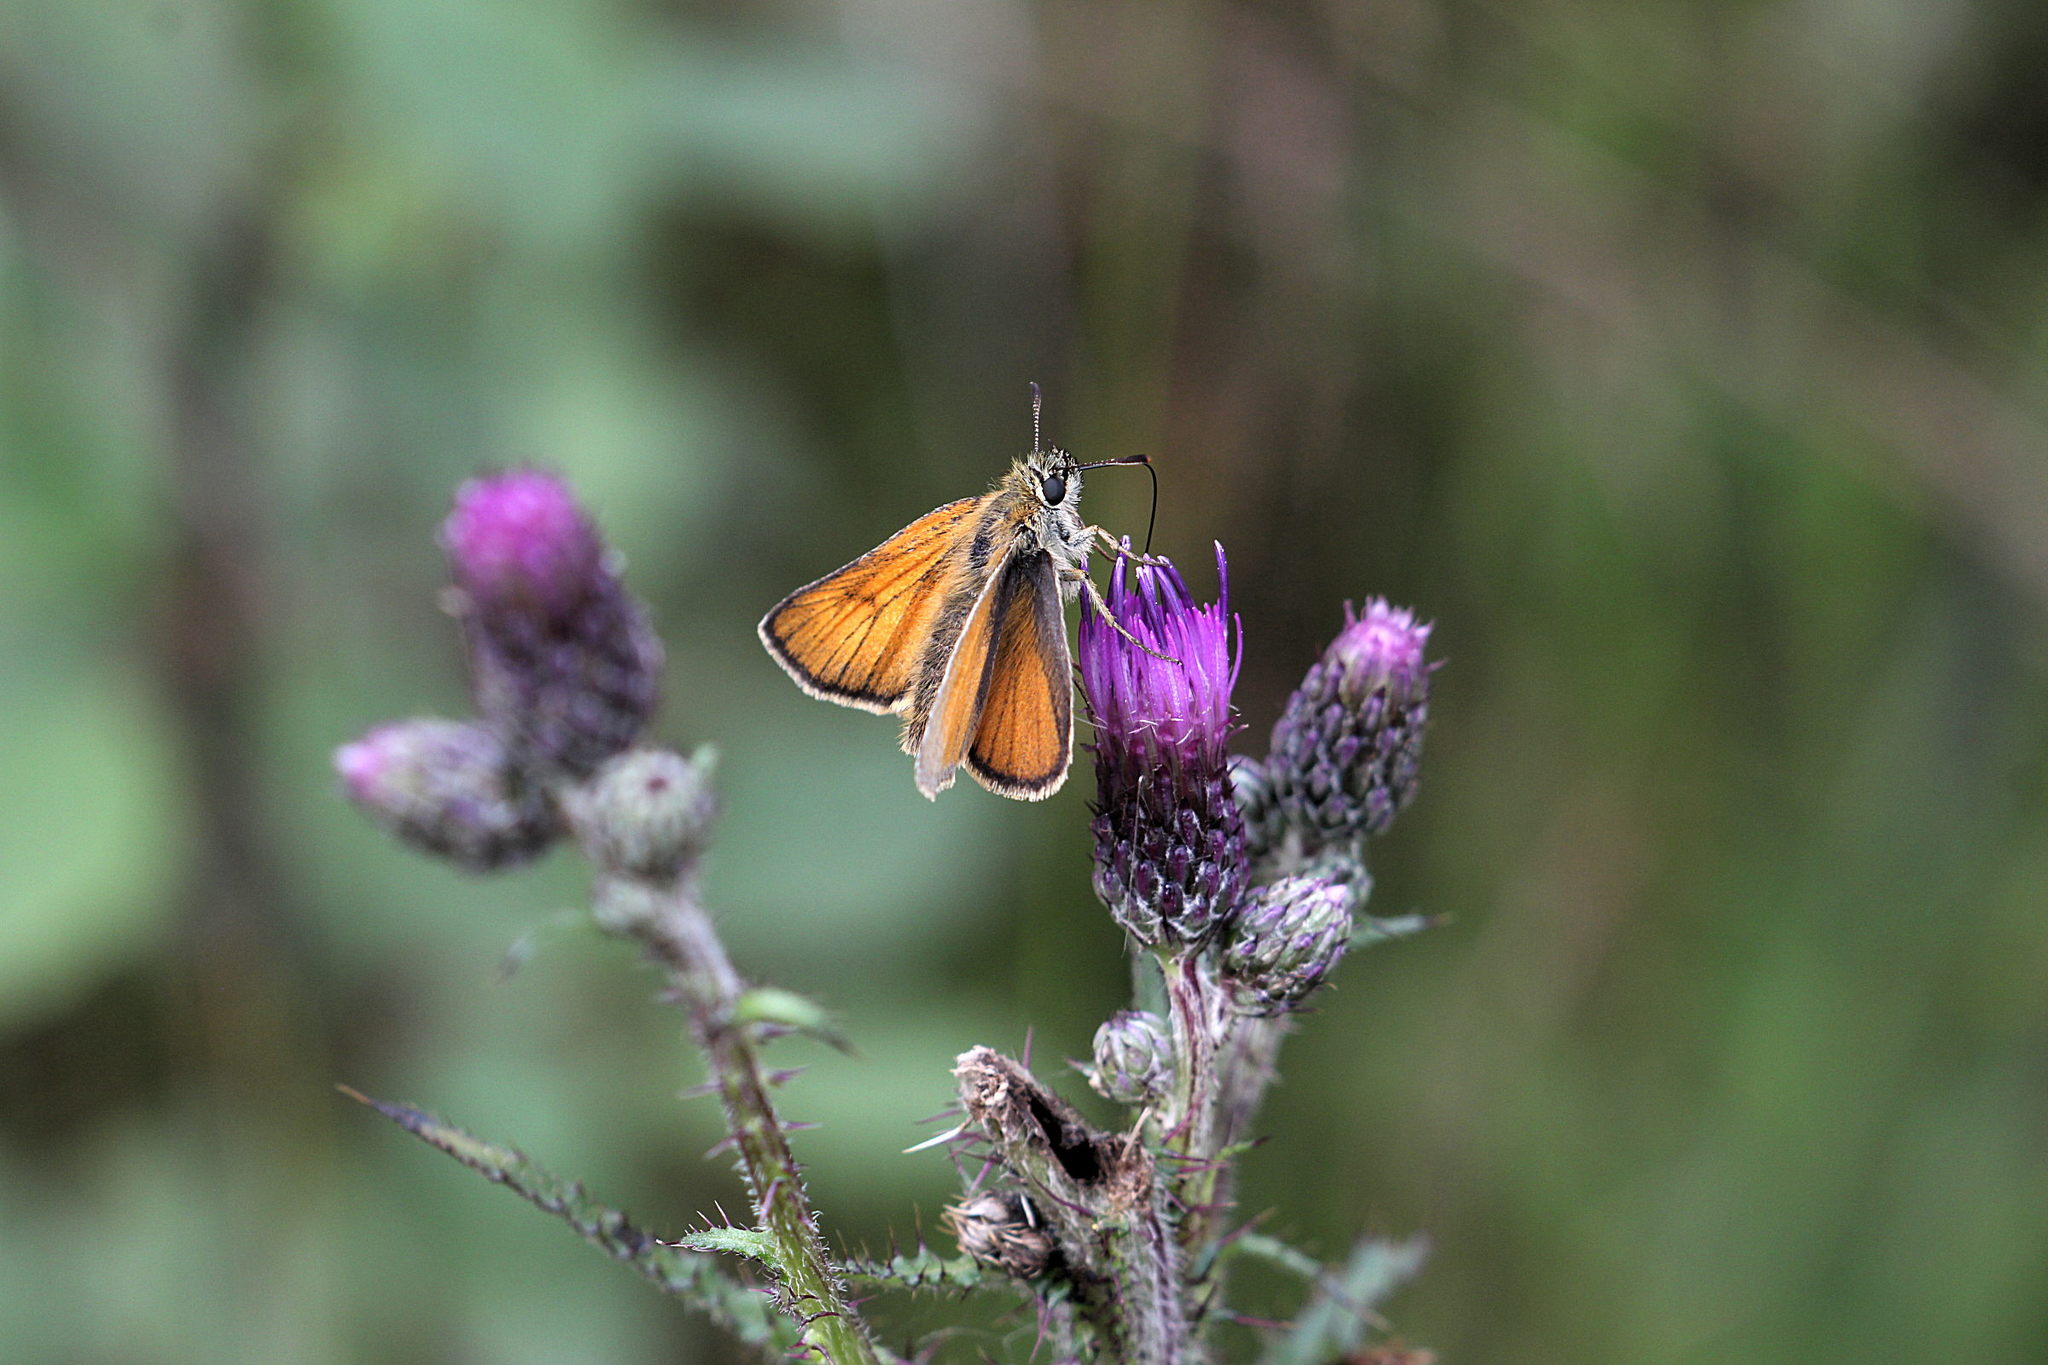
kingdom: Animalia
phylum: Arthropoda
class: Insecta
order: Lepidoptera
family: Hesperiidae
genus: Thymelicus
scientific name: Thymelicus sylvestris
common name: Small skipper
